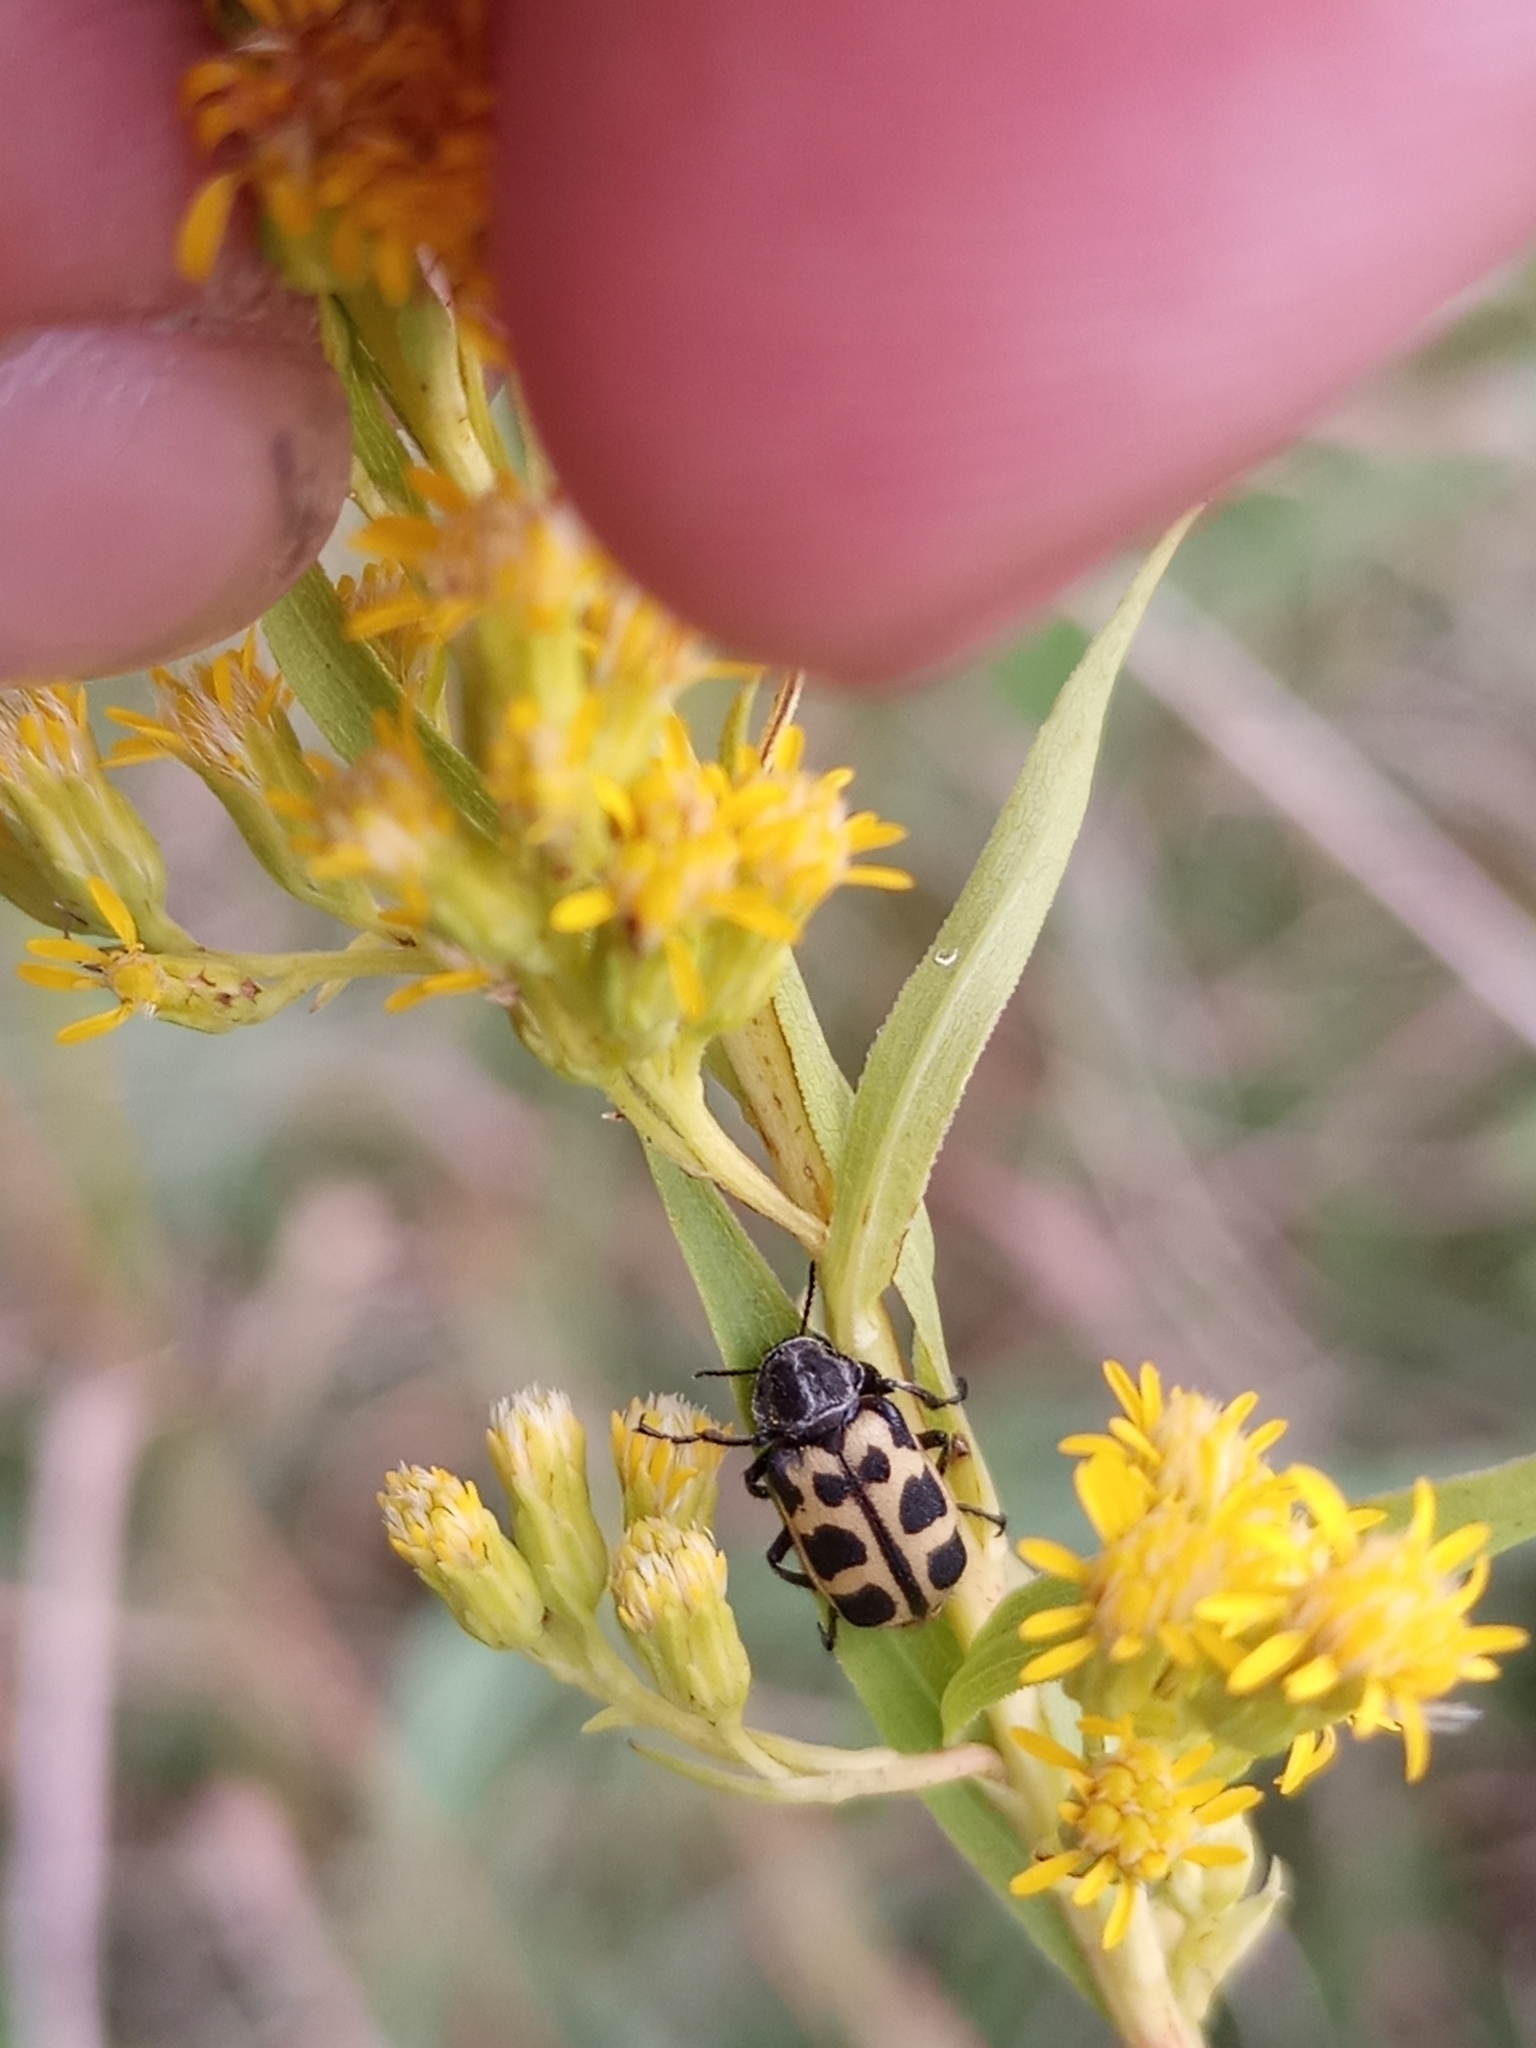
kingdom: Animalia
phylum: Arthropoda
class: Insecta
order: Coleoptera
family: Melyridae
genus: Astylus
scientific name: Astylus atromaculatus
